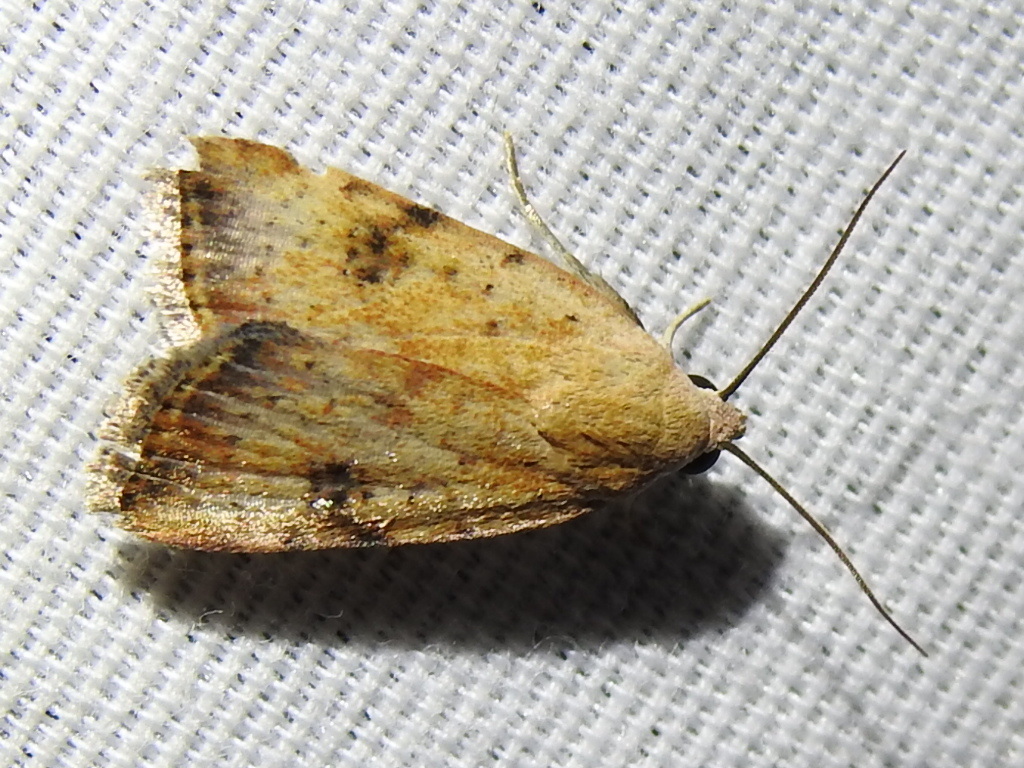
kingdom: Animalia
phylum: Arthropoda
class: Insecta
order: Lepidoptera
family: Noctuidae
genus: Micrathetis
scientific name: Micrathetis triplex
